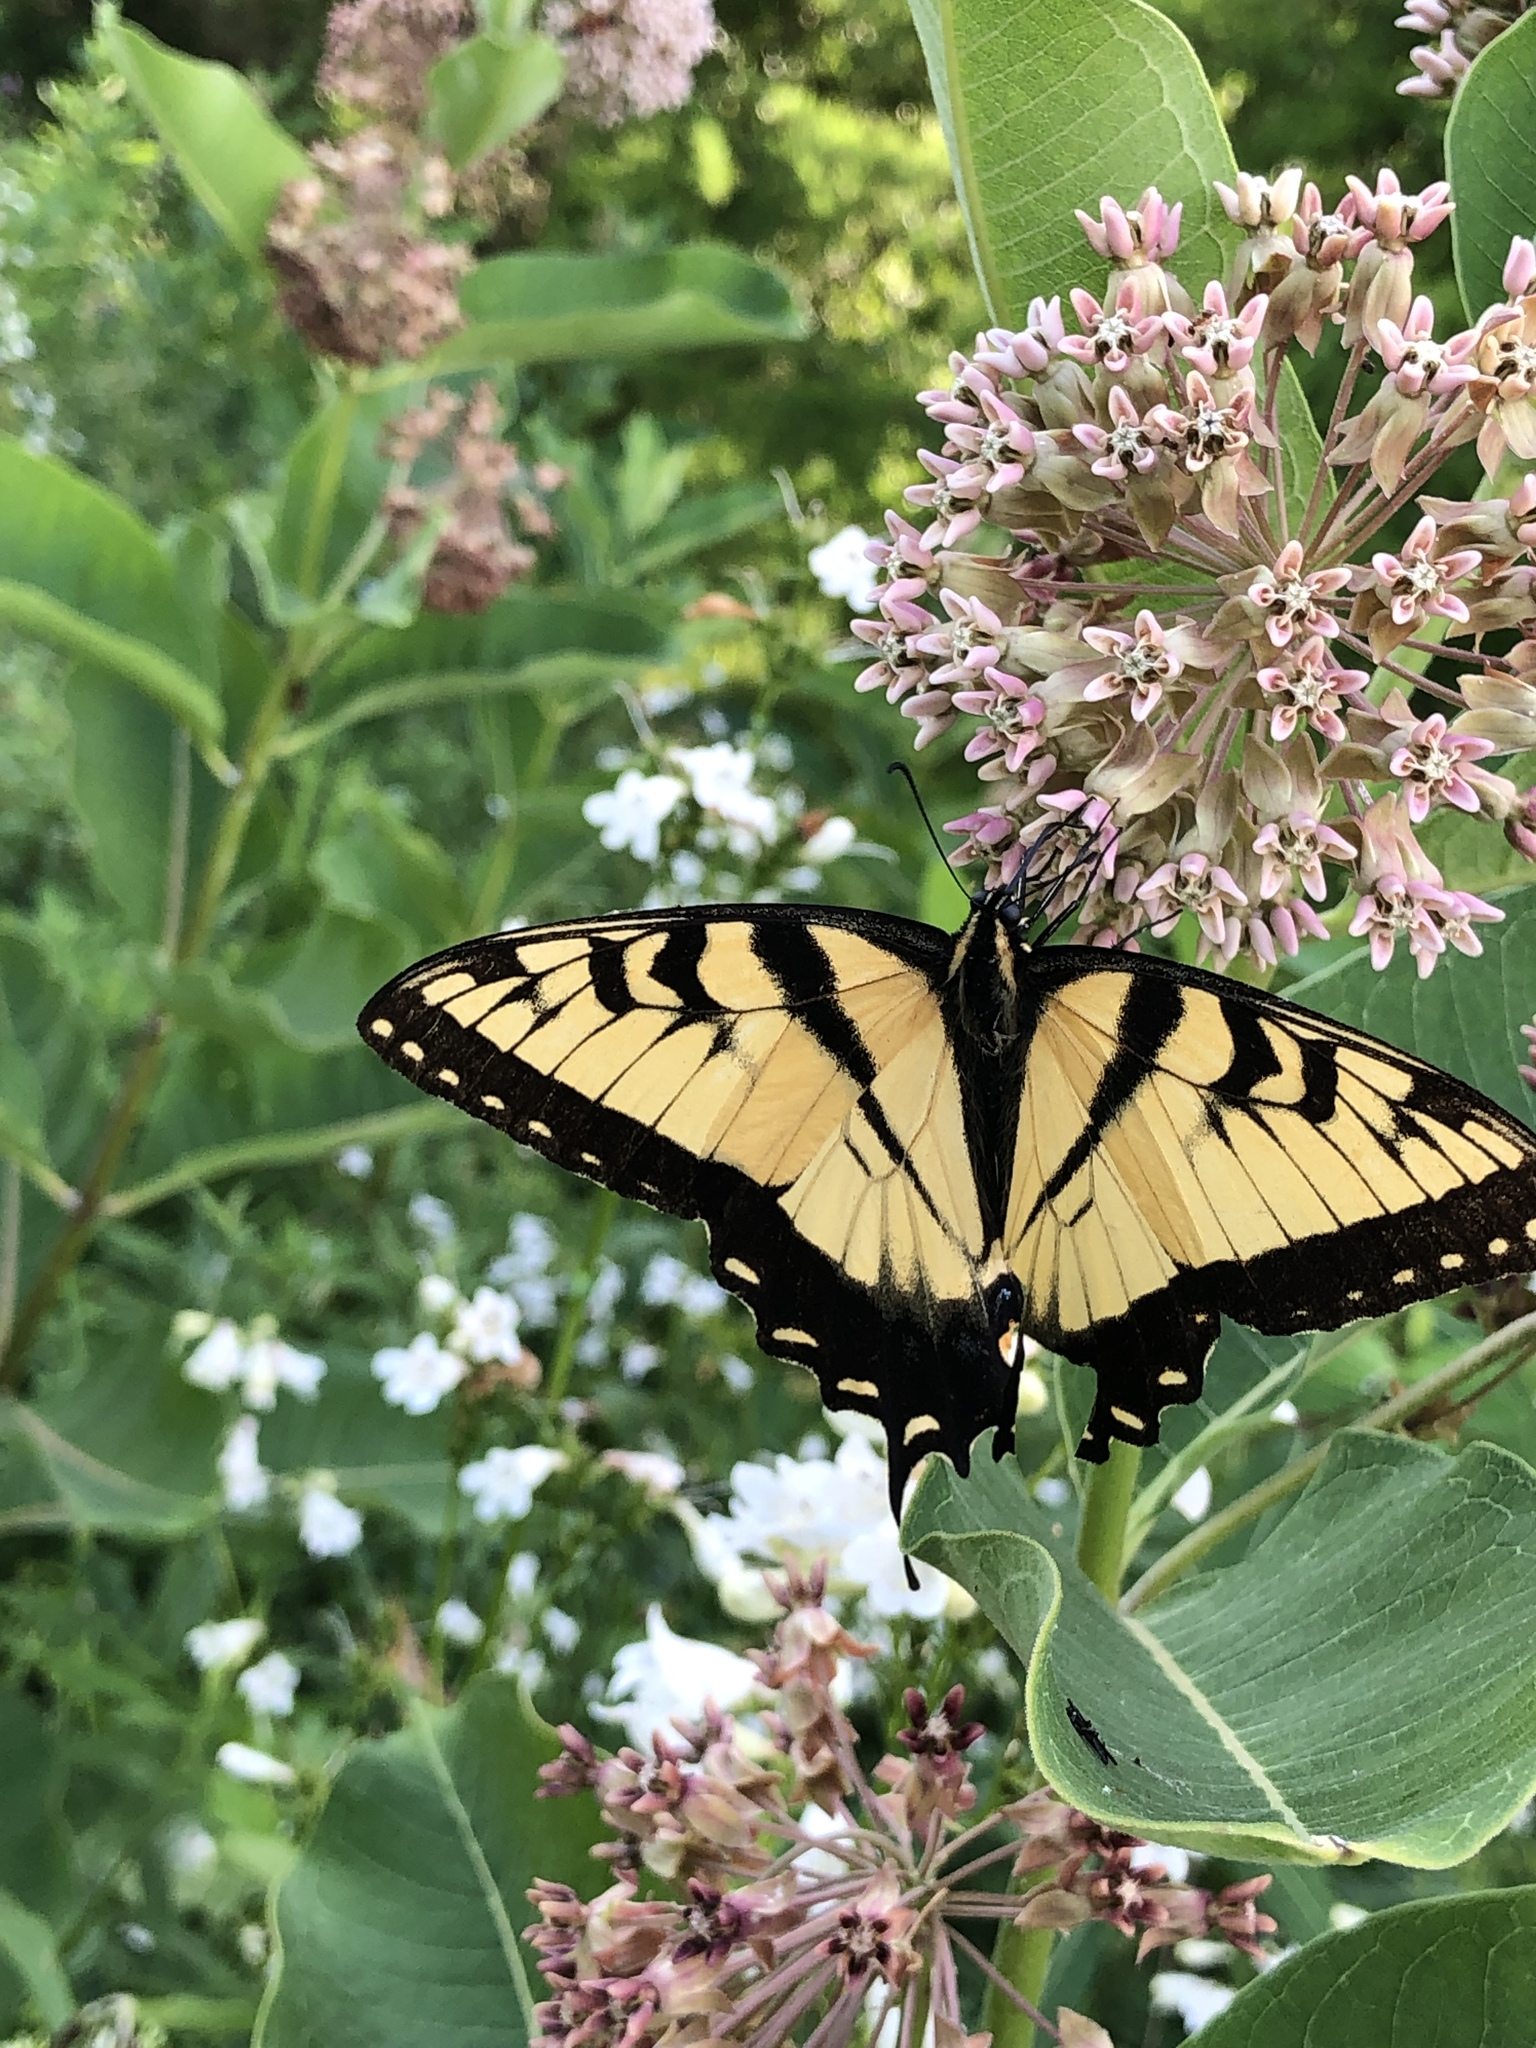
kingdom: Animalia
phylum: Arthropoda
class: Insecta
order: Lepidoptera
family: Papilionidae
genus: Papilio
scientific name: Papilio glaucus
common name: Tiger swallowtail
